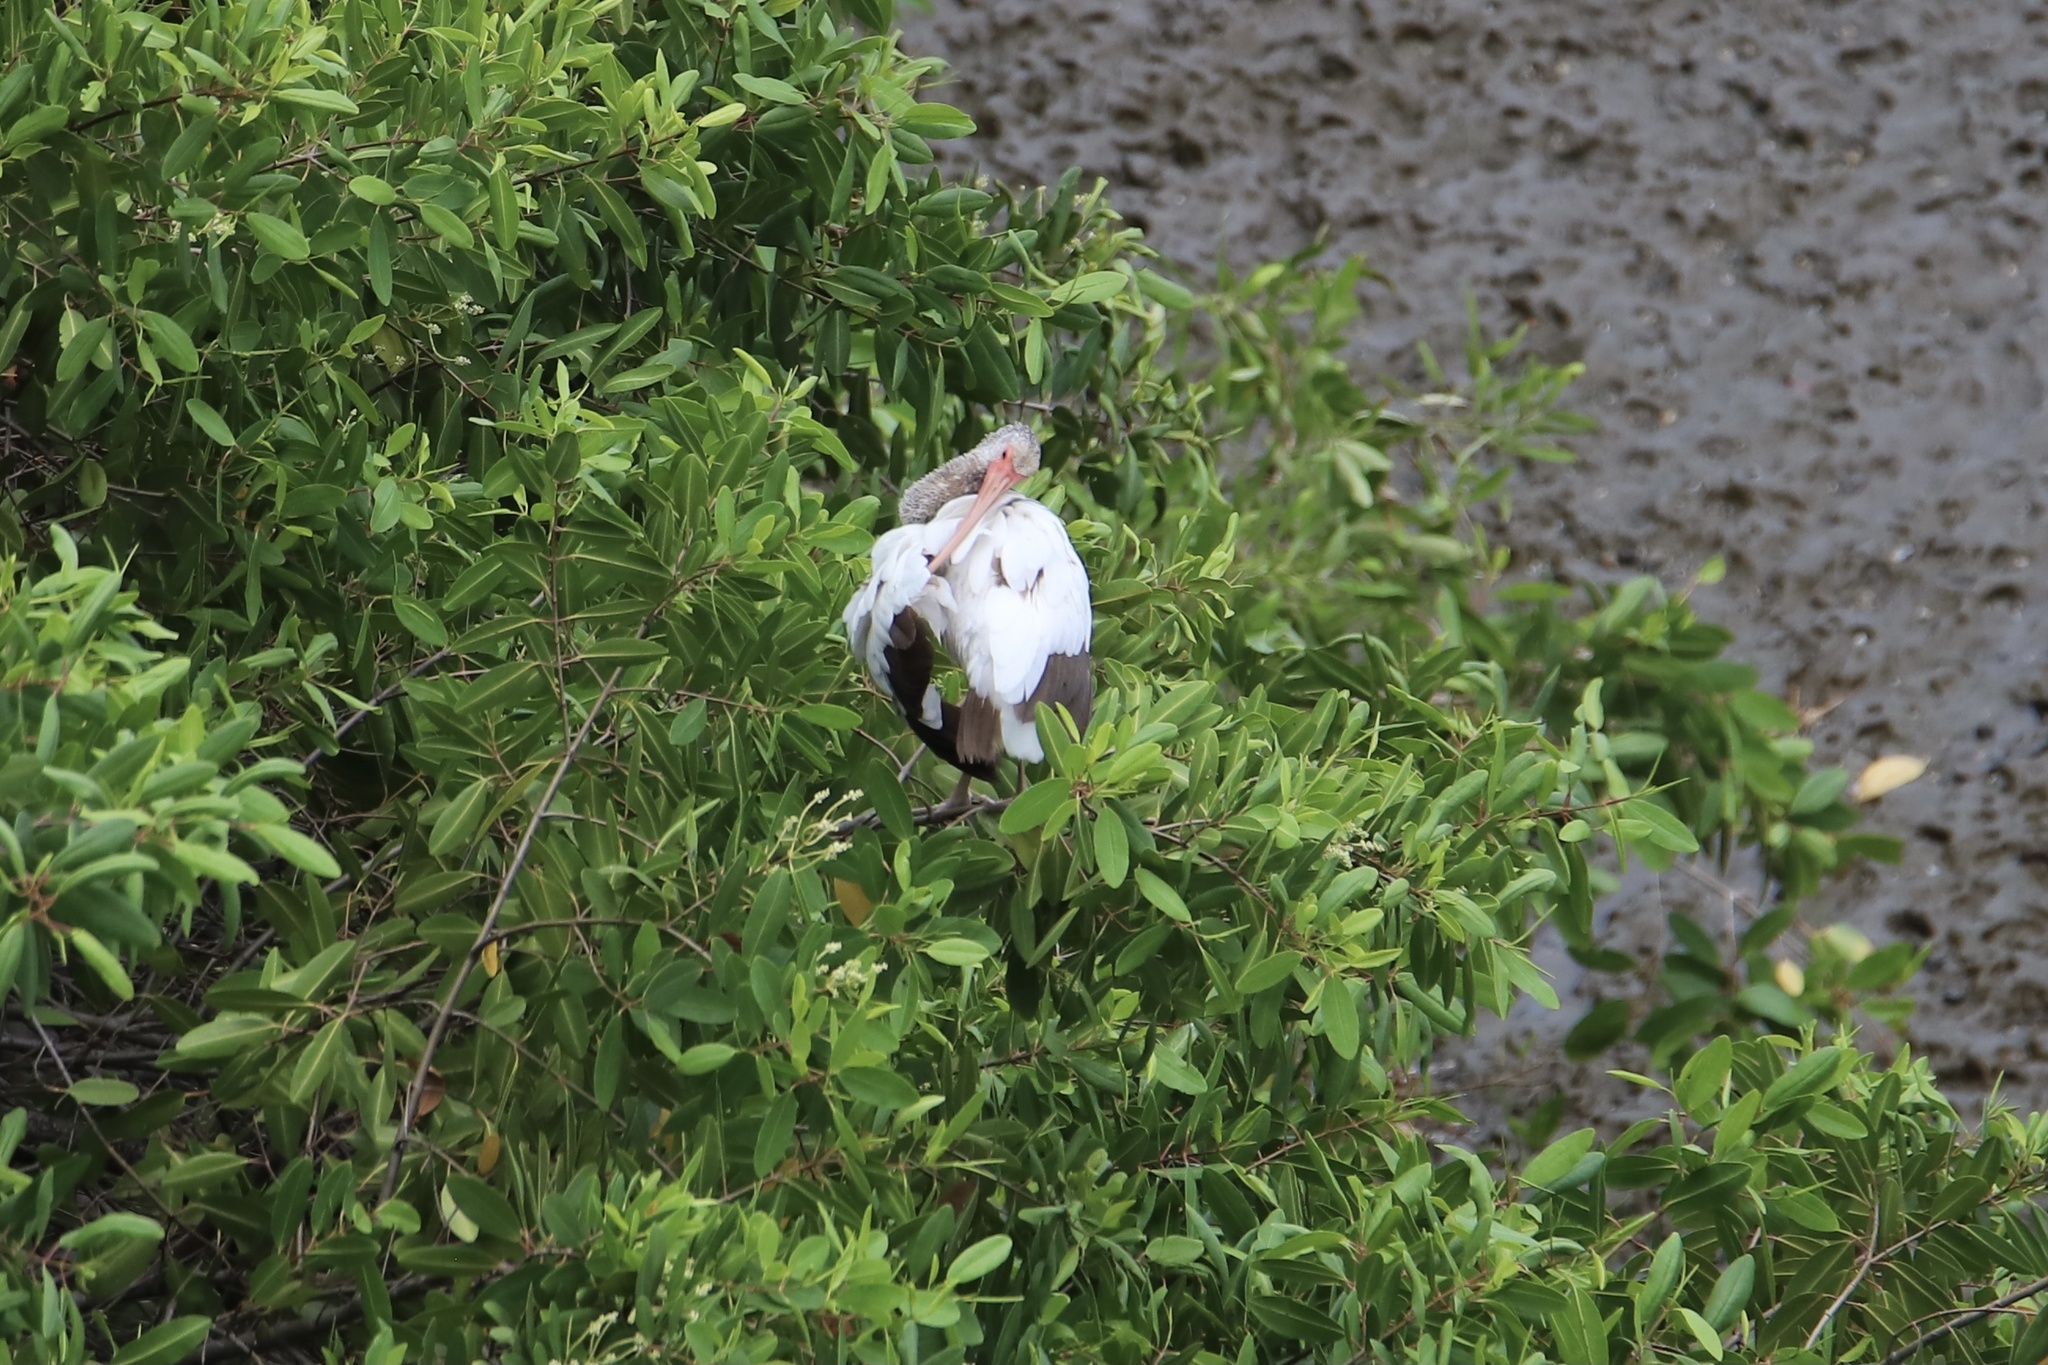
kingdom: Animalia
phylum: Chordata
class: Aves
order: Pelecaniformes
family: Threskiornithidae
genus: Eudocimus
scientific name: Eudocimus albus
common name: White ibis
